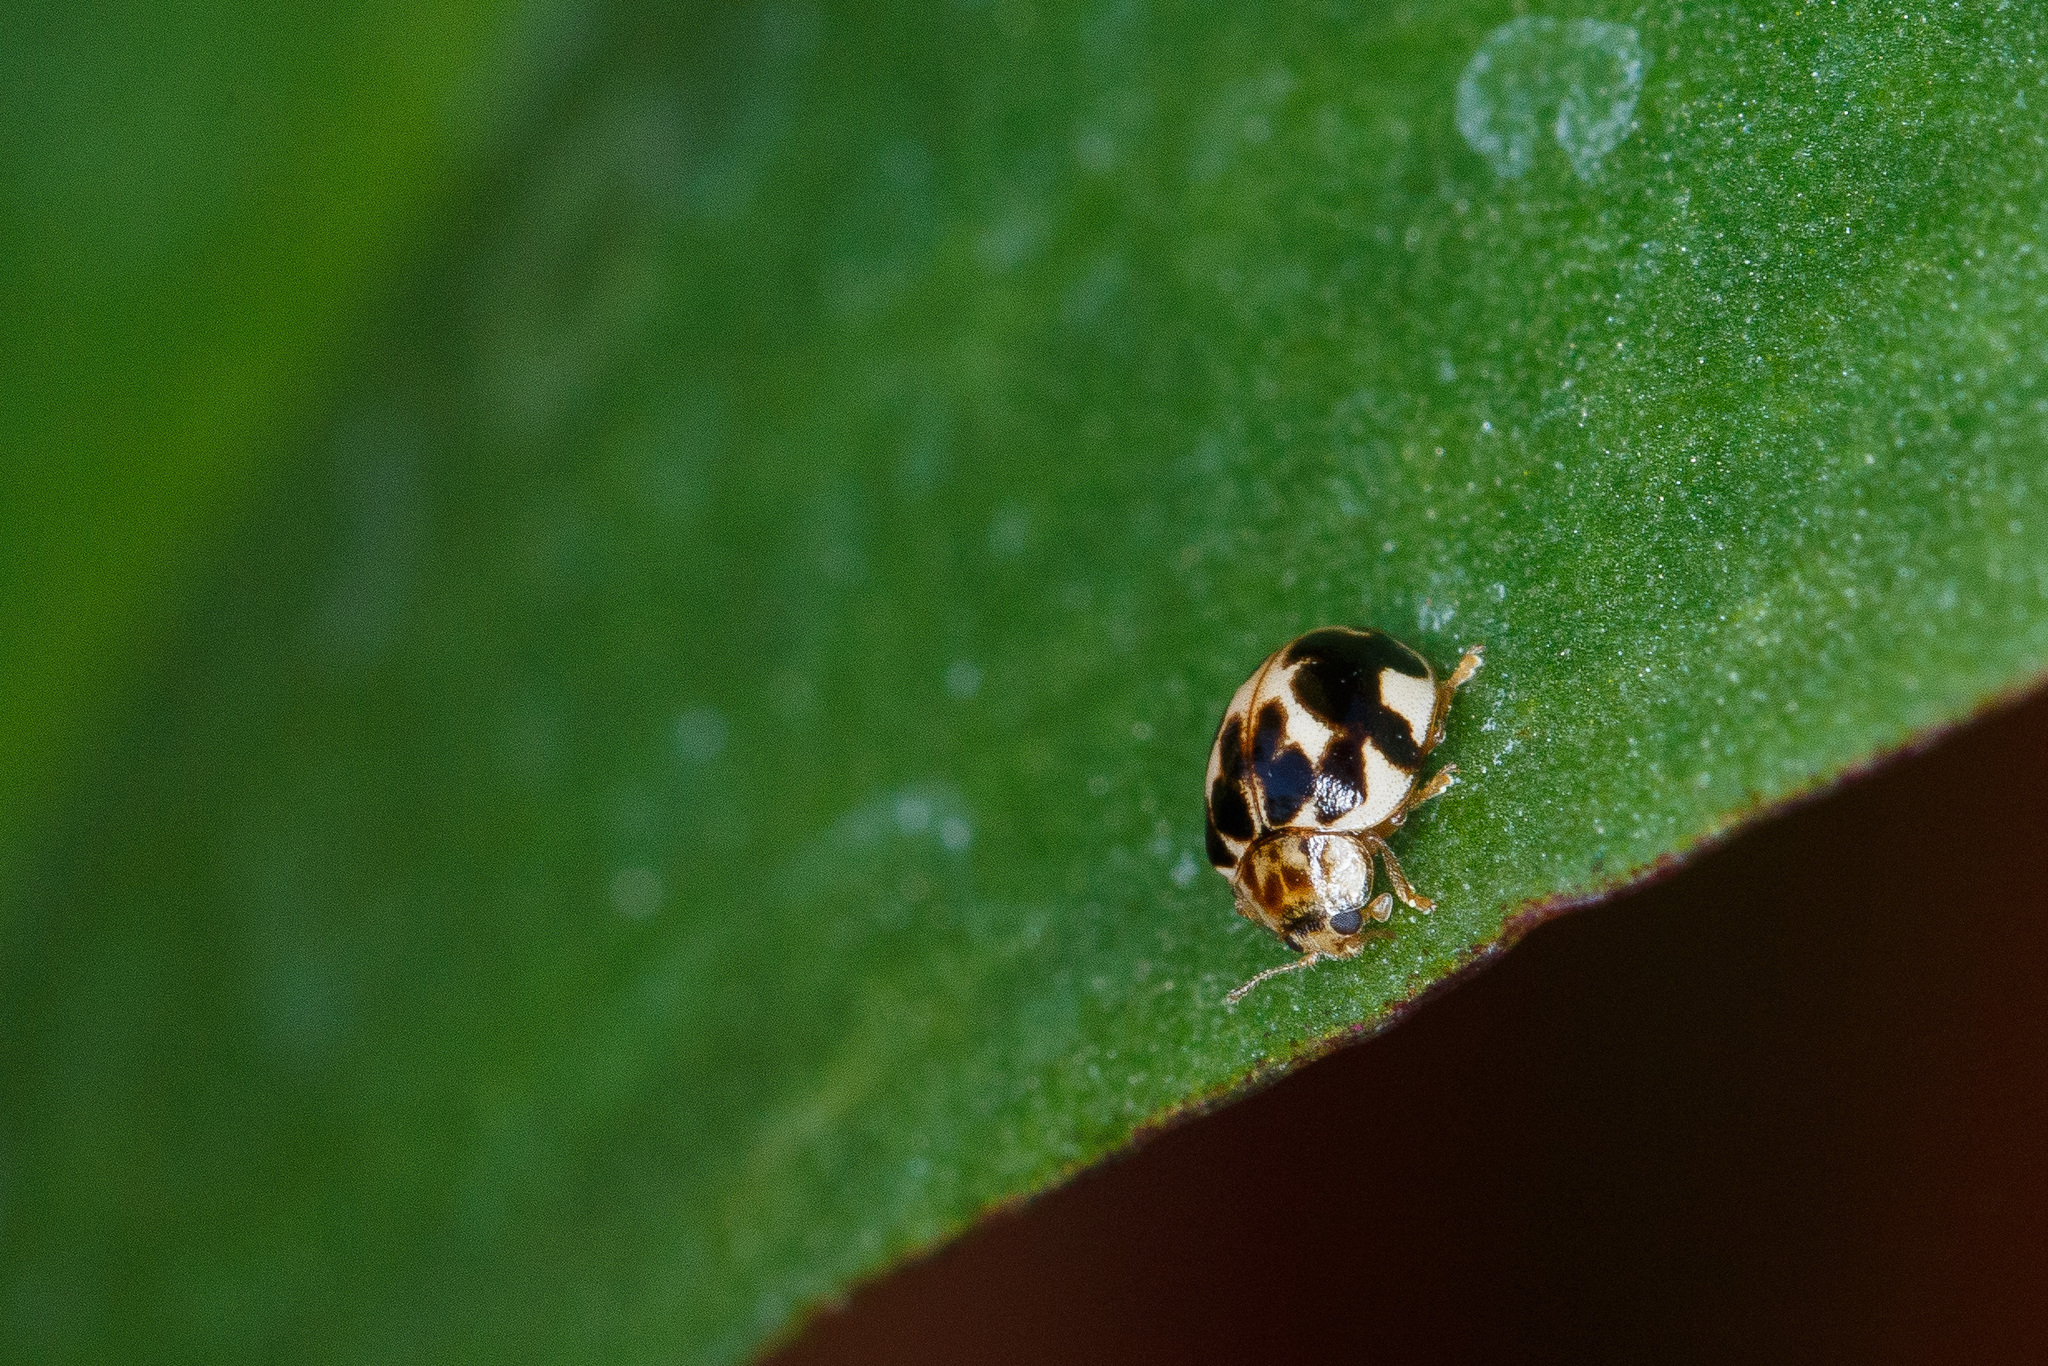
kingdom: Animalia
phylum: Arthropoda
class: Insecta
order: Coleoptera
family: Coccinellidae
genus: Psyllobora
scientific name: Psyllobora vigintimaculata
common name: Ladybird beetle
